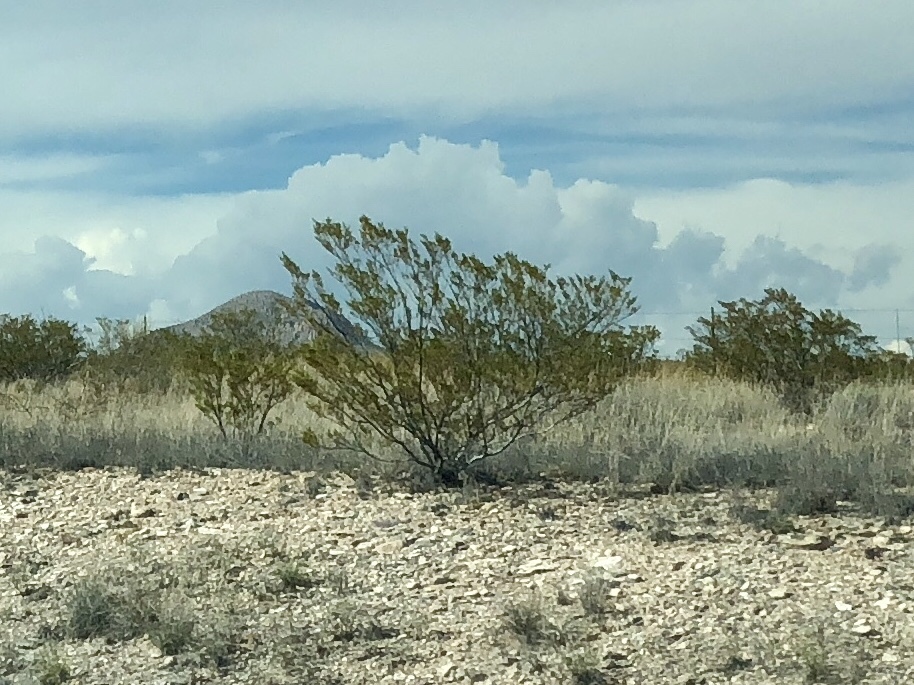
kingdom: Plantae
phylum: Tracheophyta
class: Magnoliopsida
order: Zygophyllales
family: Zygophyllaceae
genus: Larrea
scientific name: Larrea tridentata
